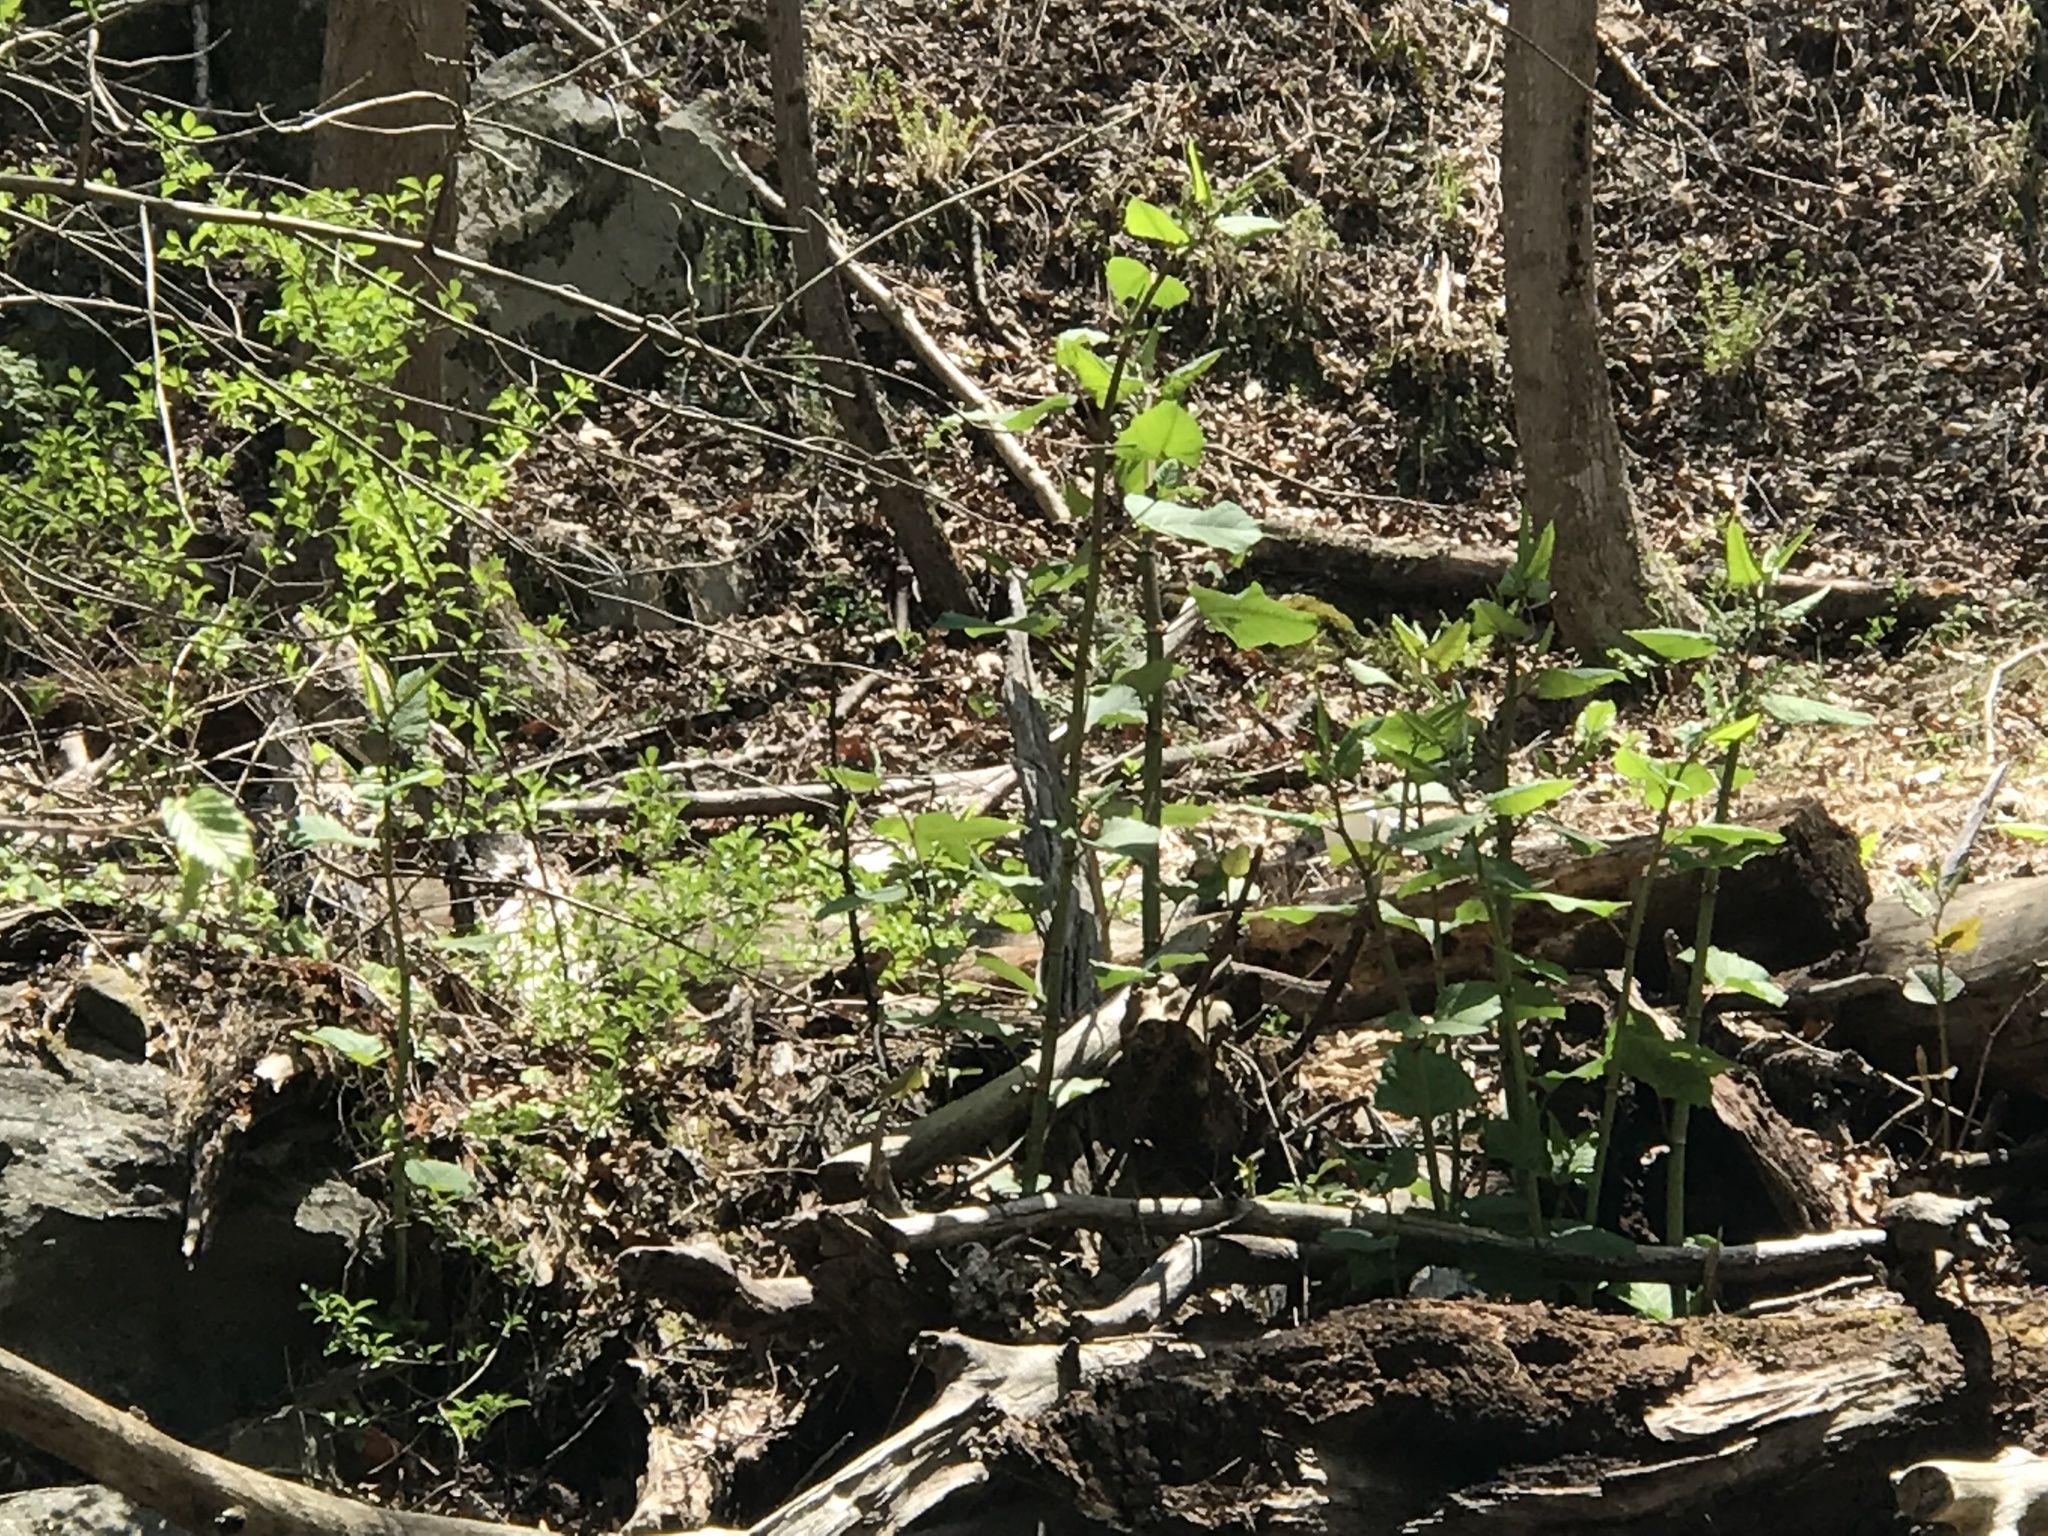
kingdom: Plantae
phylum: Tracheophyta
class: Magnoliopsida
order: Caryophyllales
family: Polygonaceae
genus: Reynoutria
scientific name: Reynoutria japonica
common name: Japanese knotweed
